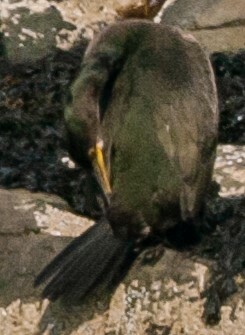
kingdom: Animalia
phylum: Chordata
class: Aves
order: Suliformes
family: Phalacrocoracidae
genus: Phalacrocorax
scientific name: Phalacrocorax aristotelis
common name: European shag
